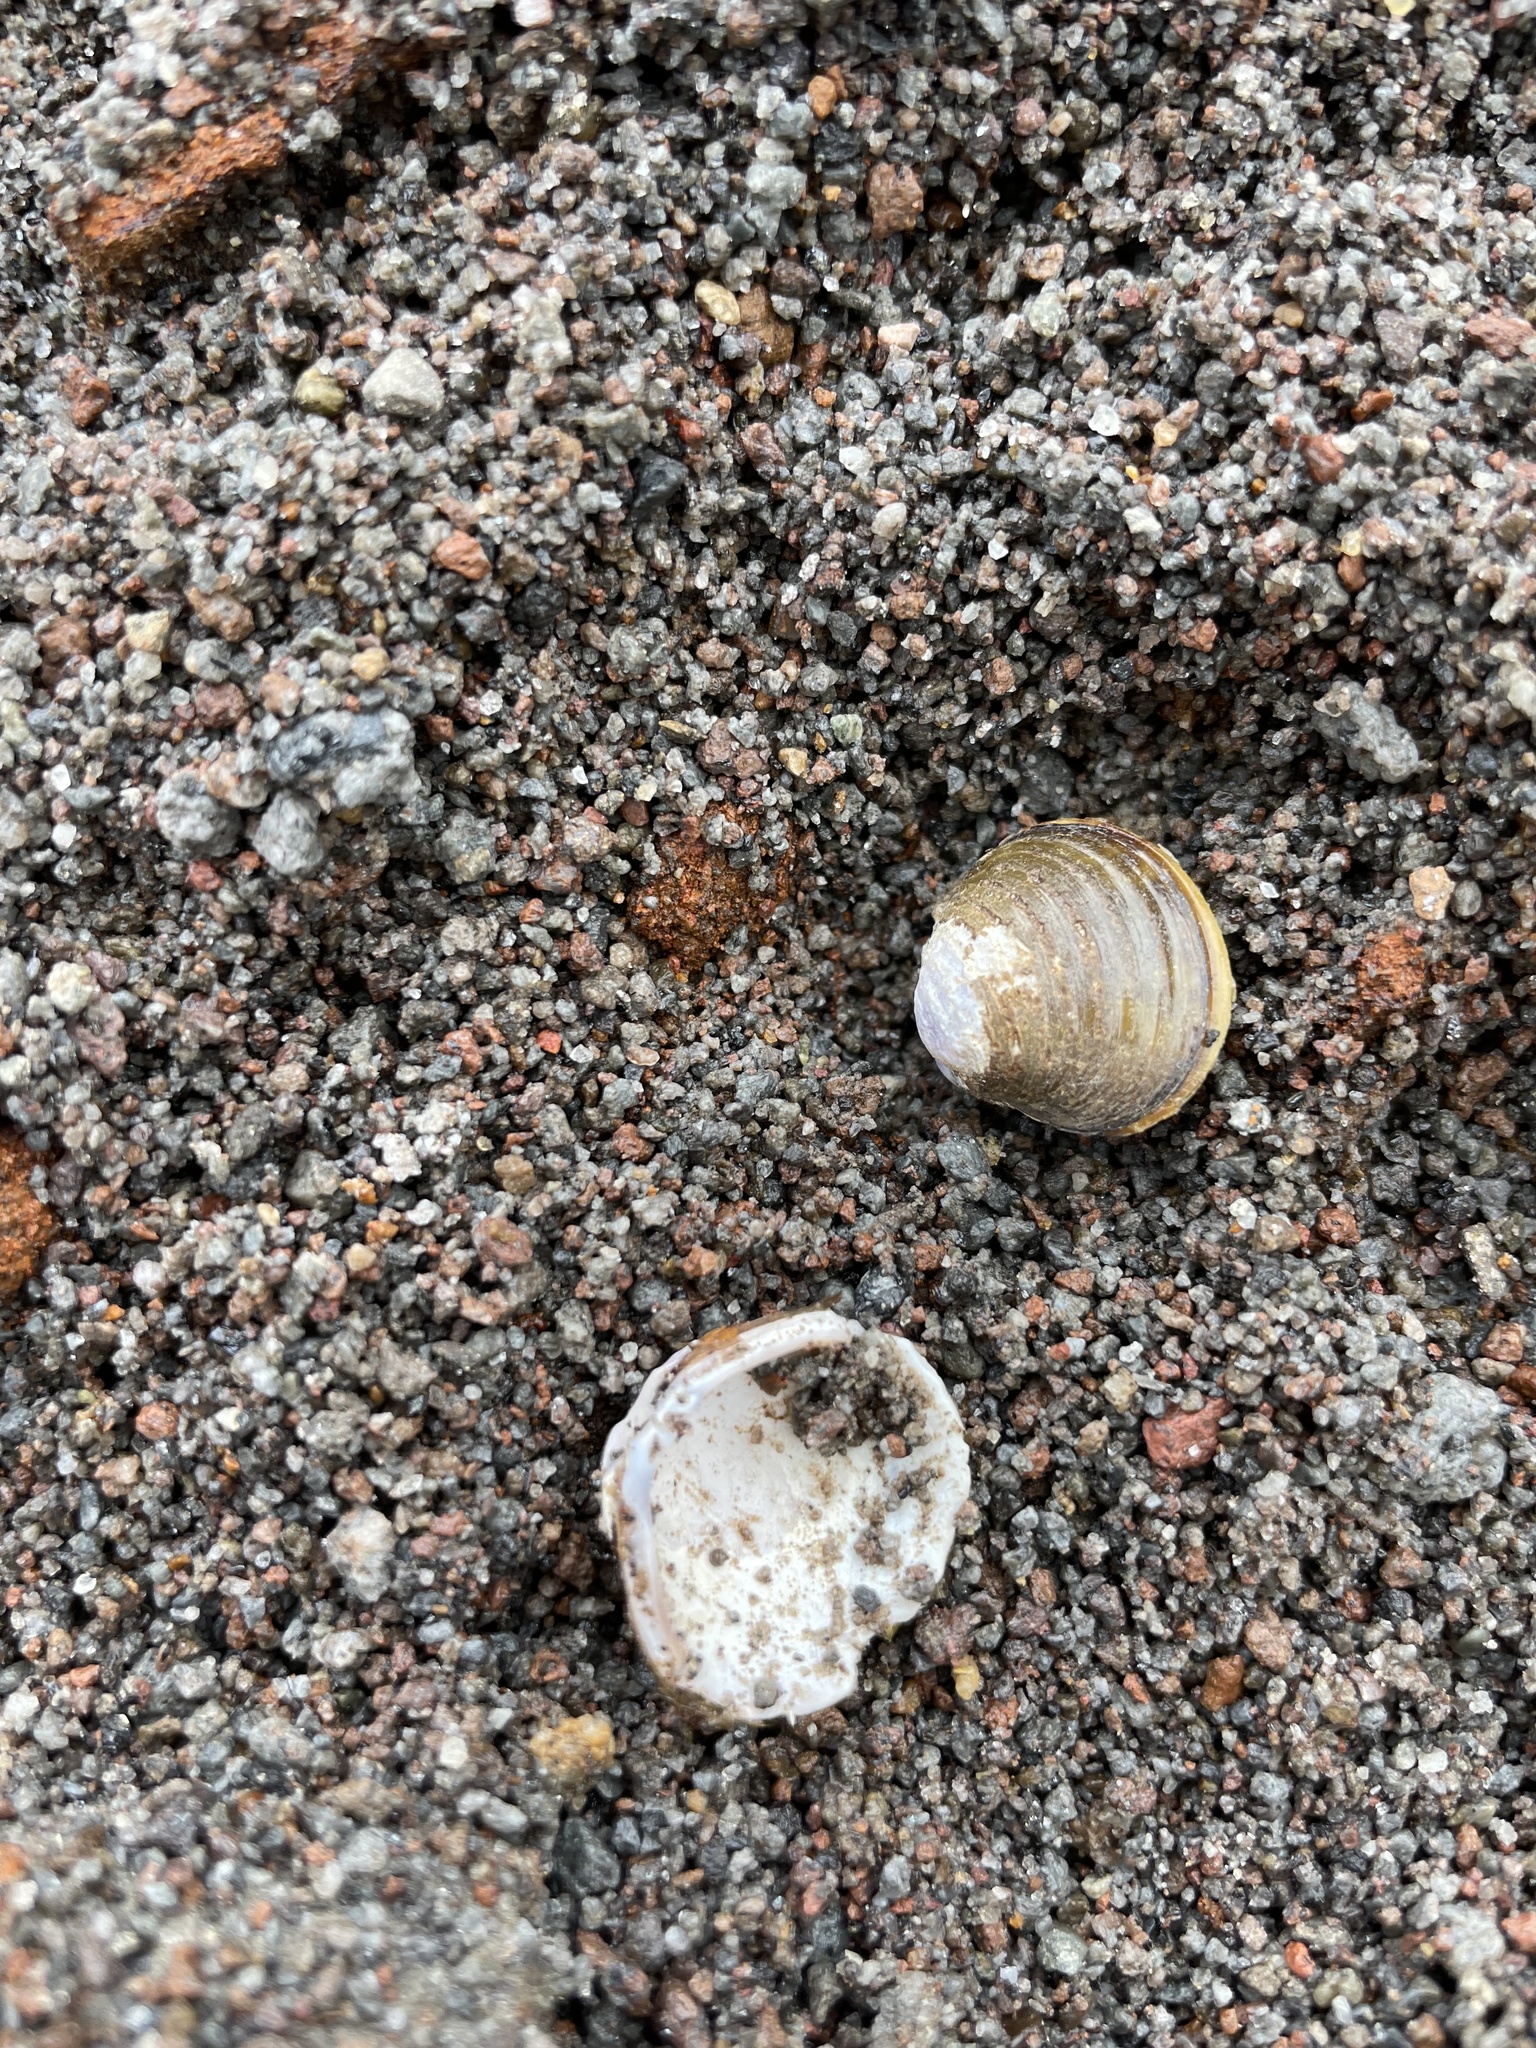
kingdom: Animalia
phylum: Mollusca
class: Bivalvia
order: Venerida
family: Cyrenidae
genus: Corbicula
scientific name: Corbicula fluminea
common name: Asian clam
